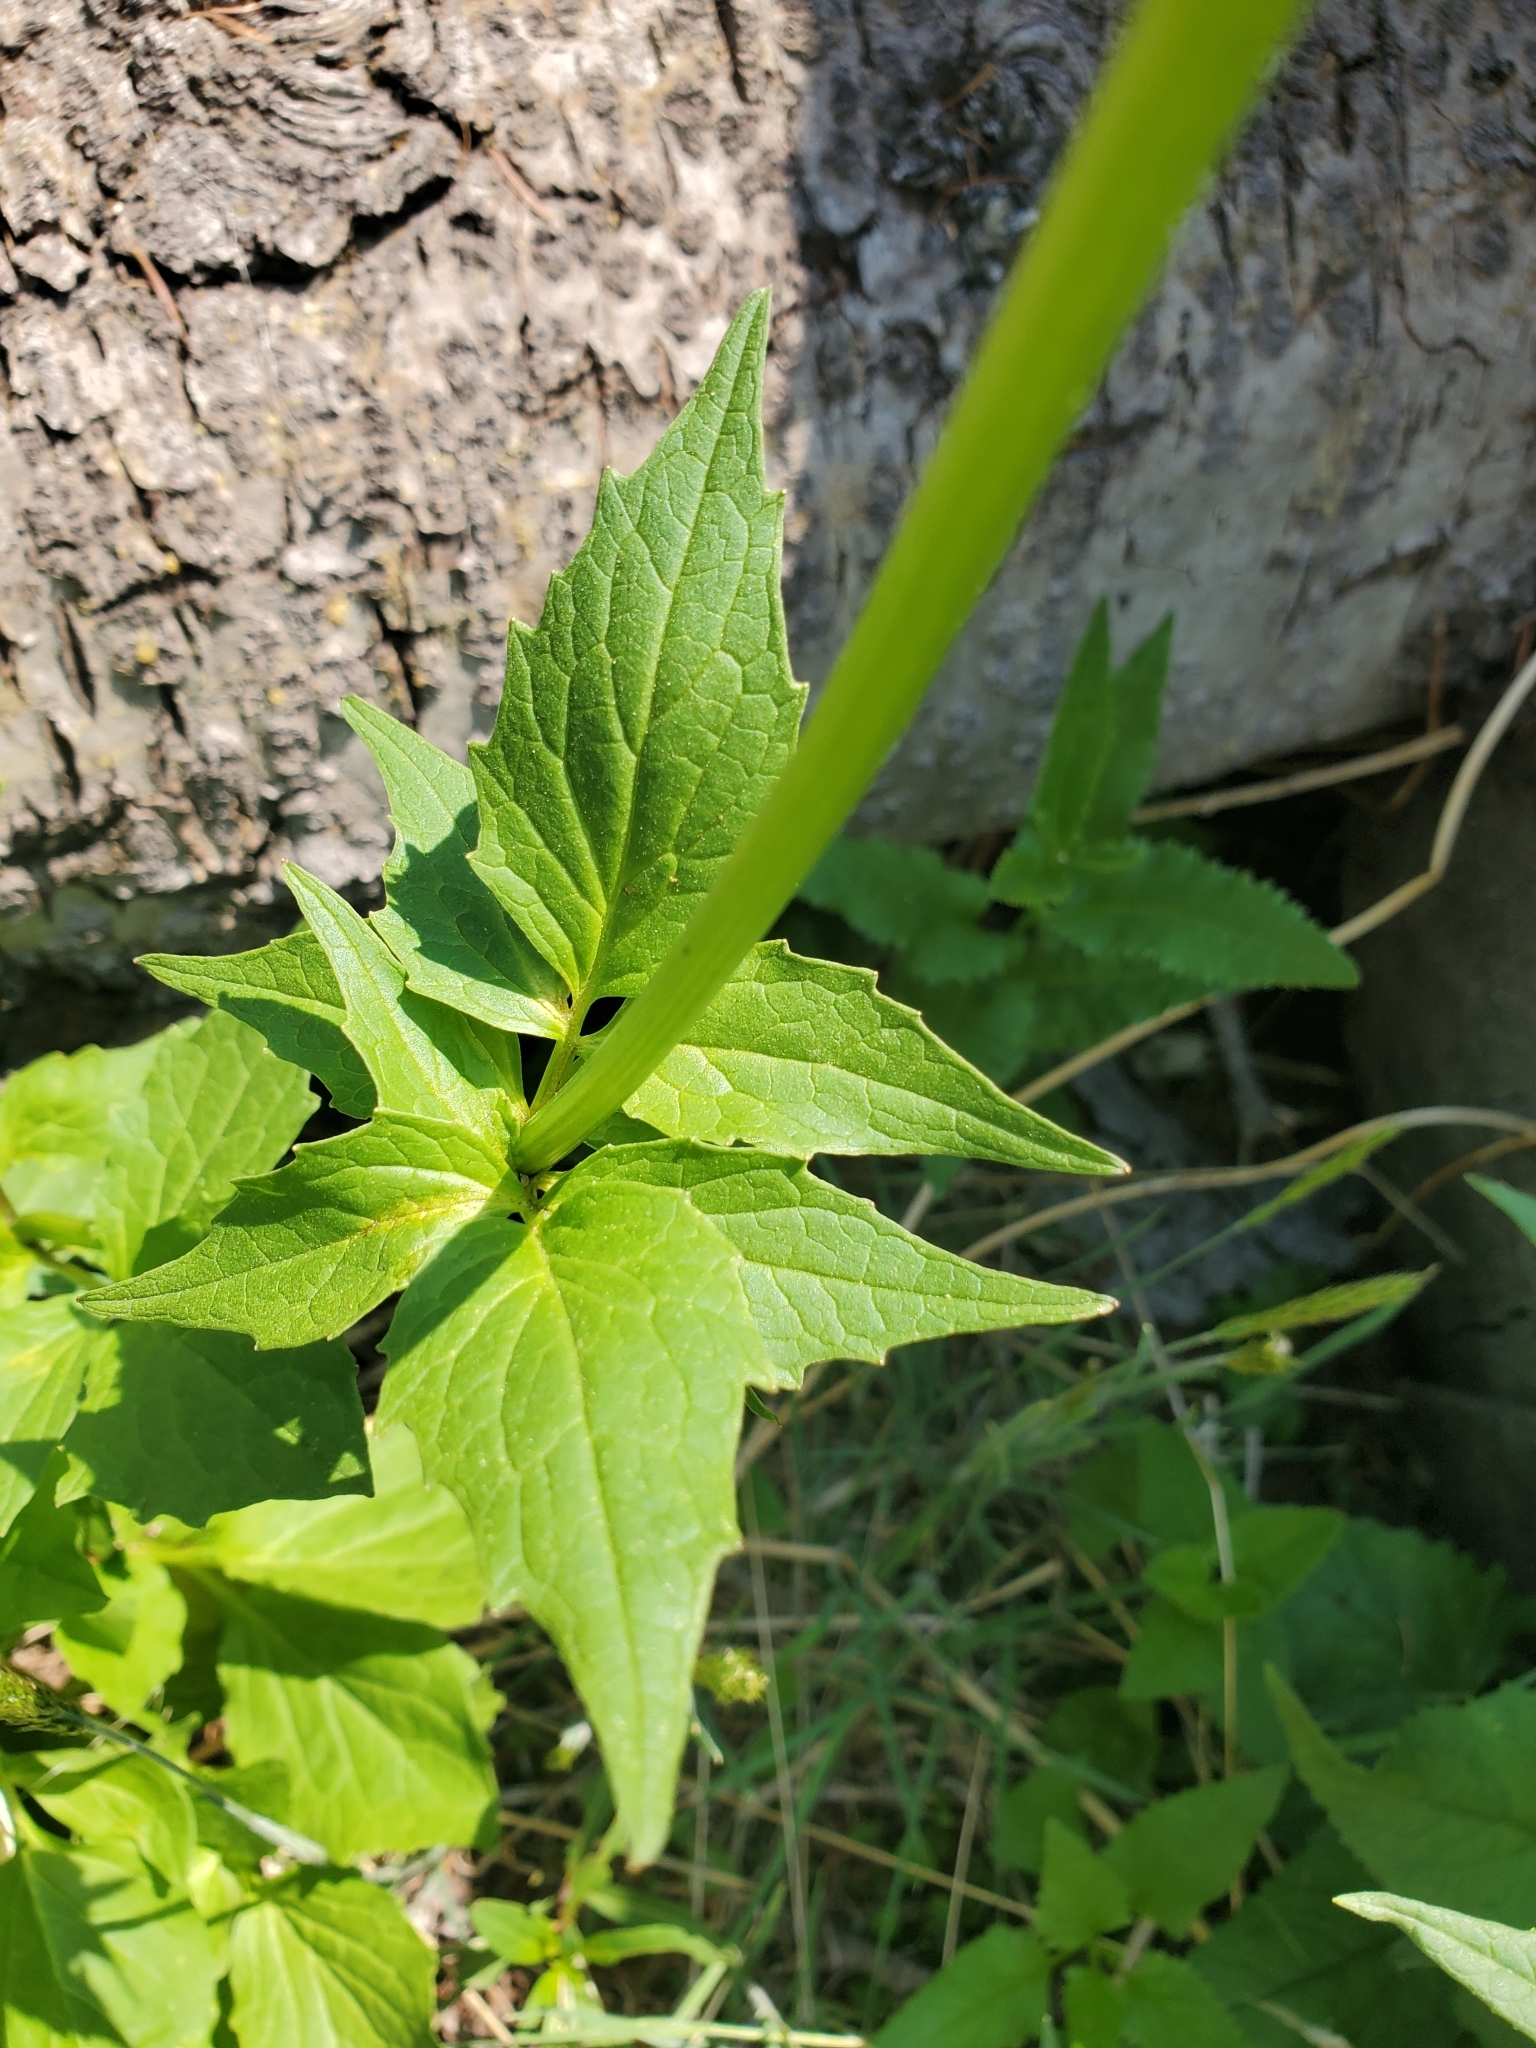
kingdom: Plantae
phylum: Tracheophyta
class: Magnoliopsida
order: Dipsacales
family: Caprifoliaceae
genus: Valeriana
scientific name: Valeriana sitchensis
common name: Pacific valerian
